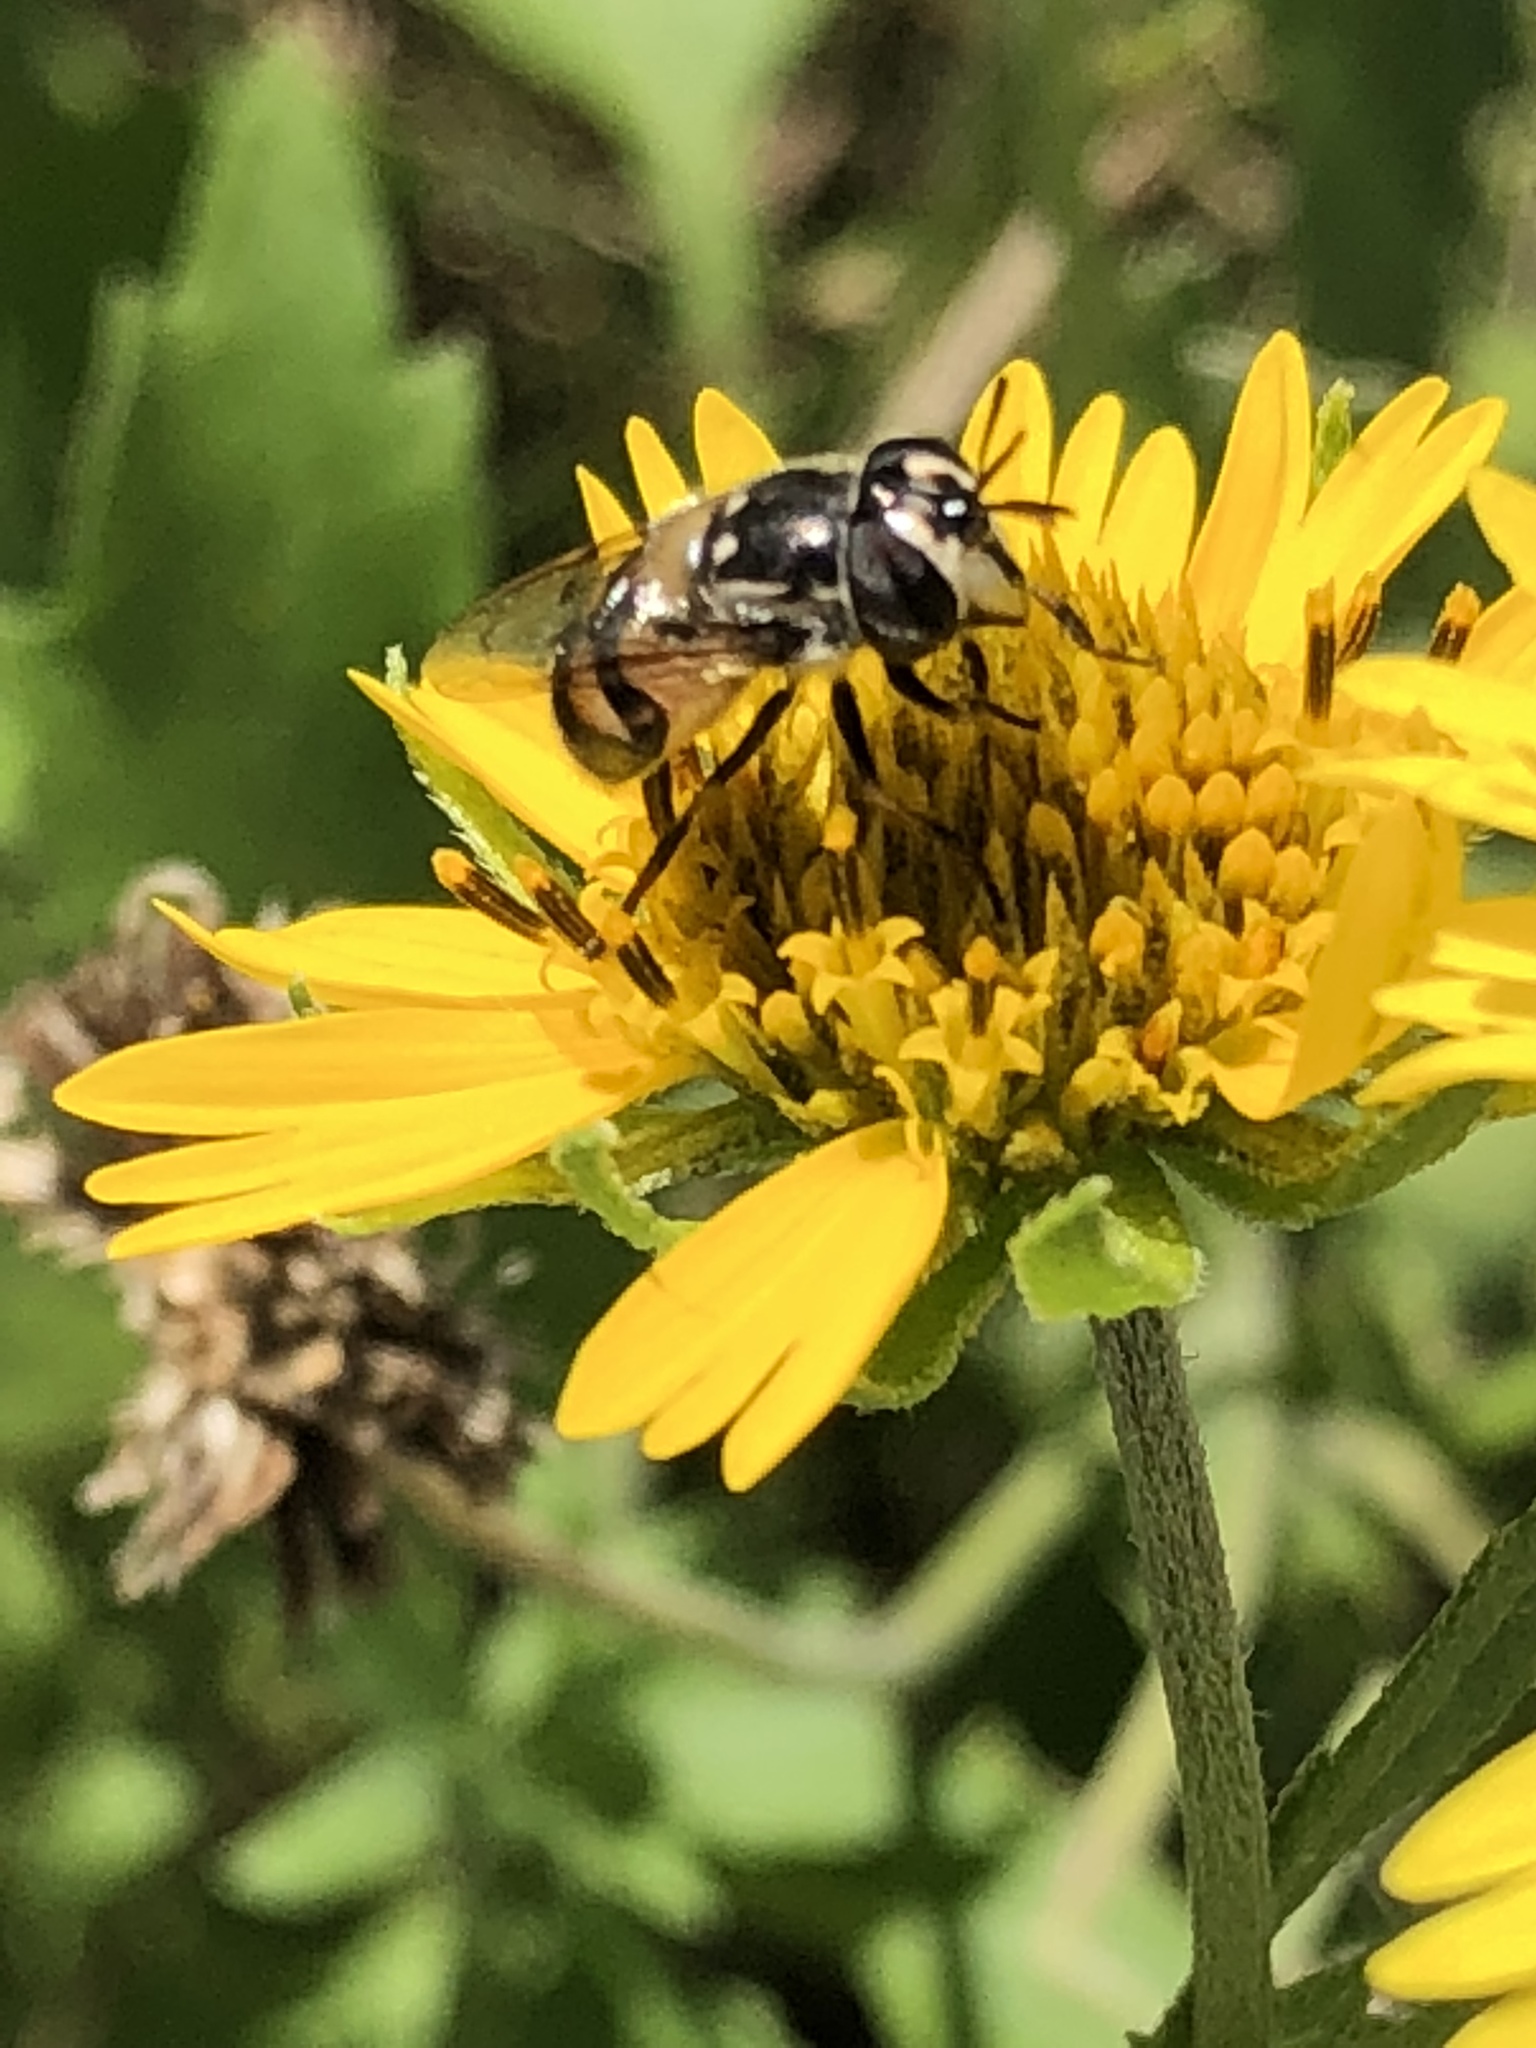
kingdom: Animalia
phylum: Arthropoda
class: Insecta
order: Diptera
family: Syrphidae
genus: Copestylum
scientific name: Copestylum marginatum
